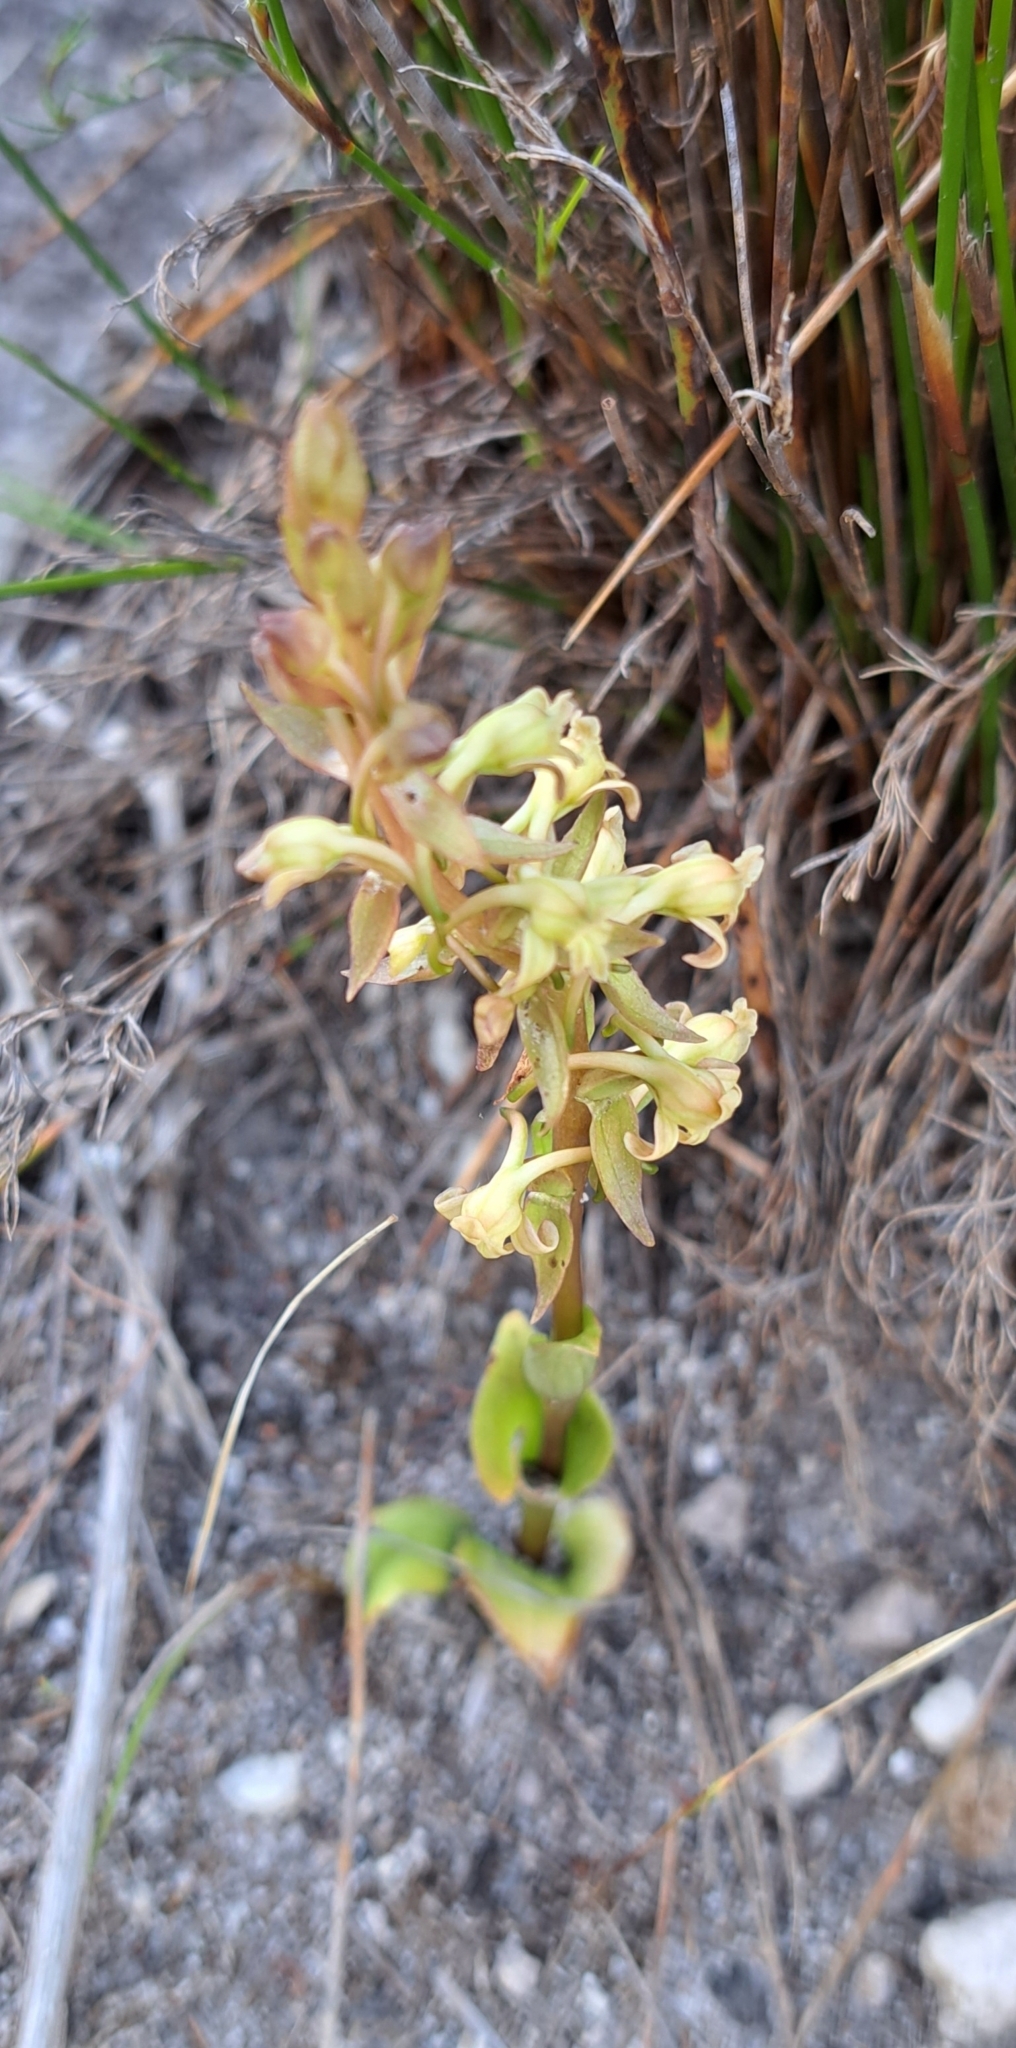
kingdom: Plantae
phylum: Tracheophyta
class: Liliopsida
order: Asparagales
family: Orchidaceae
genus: Satyrium
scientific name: Satyrium humile
